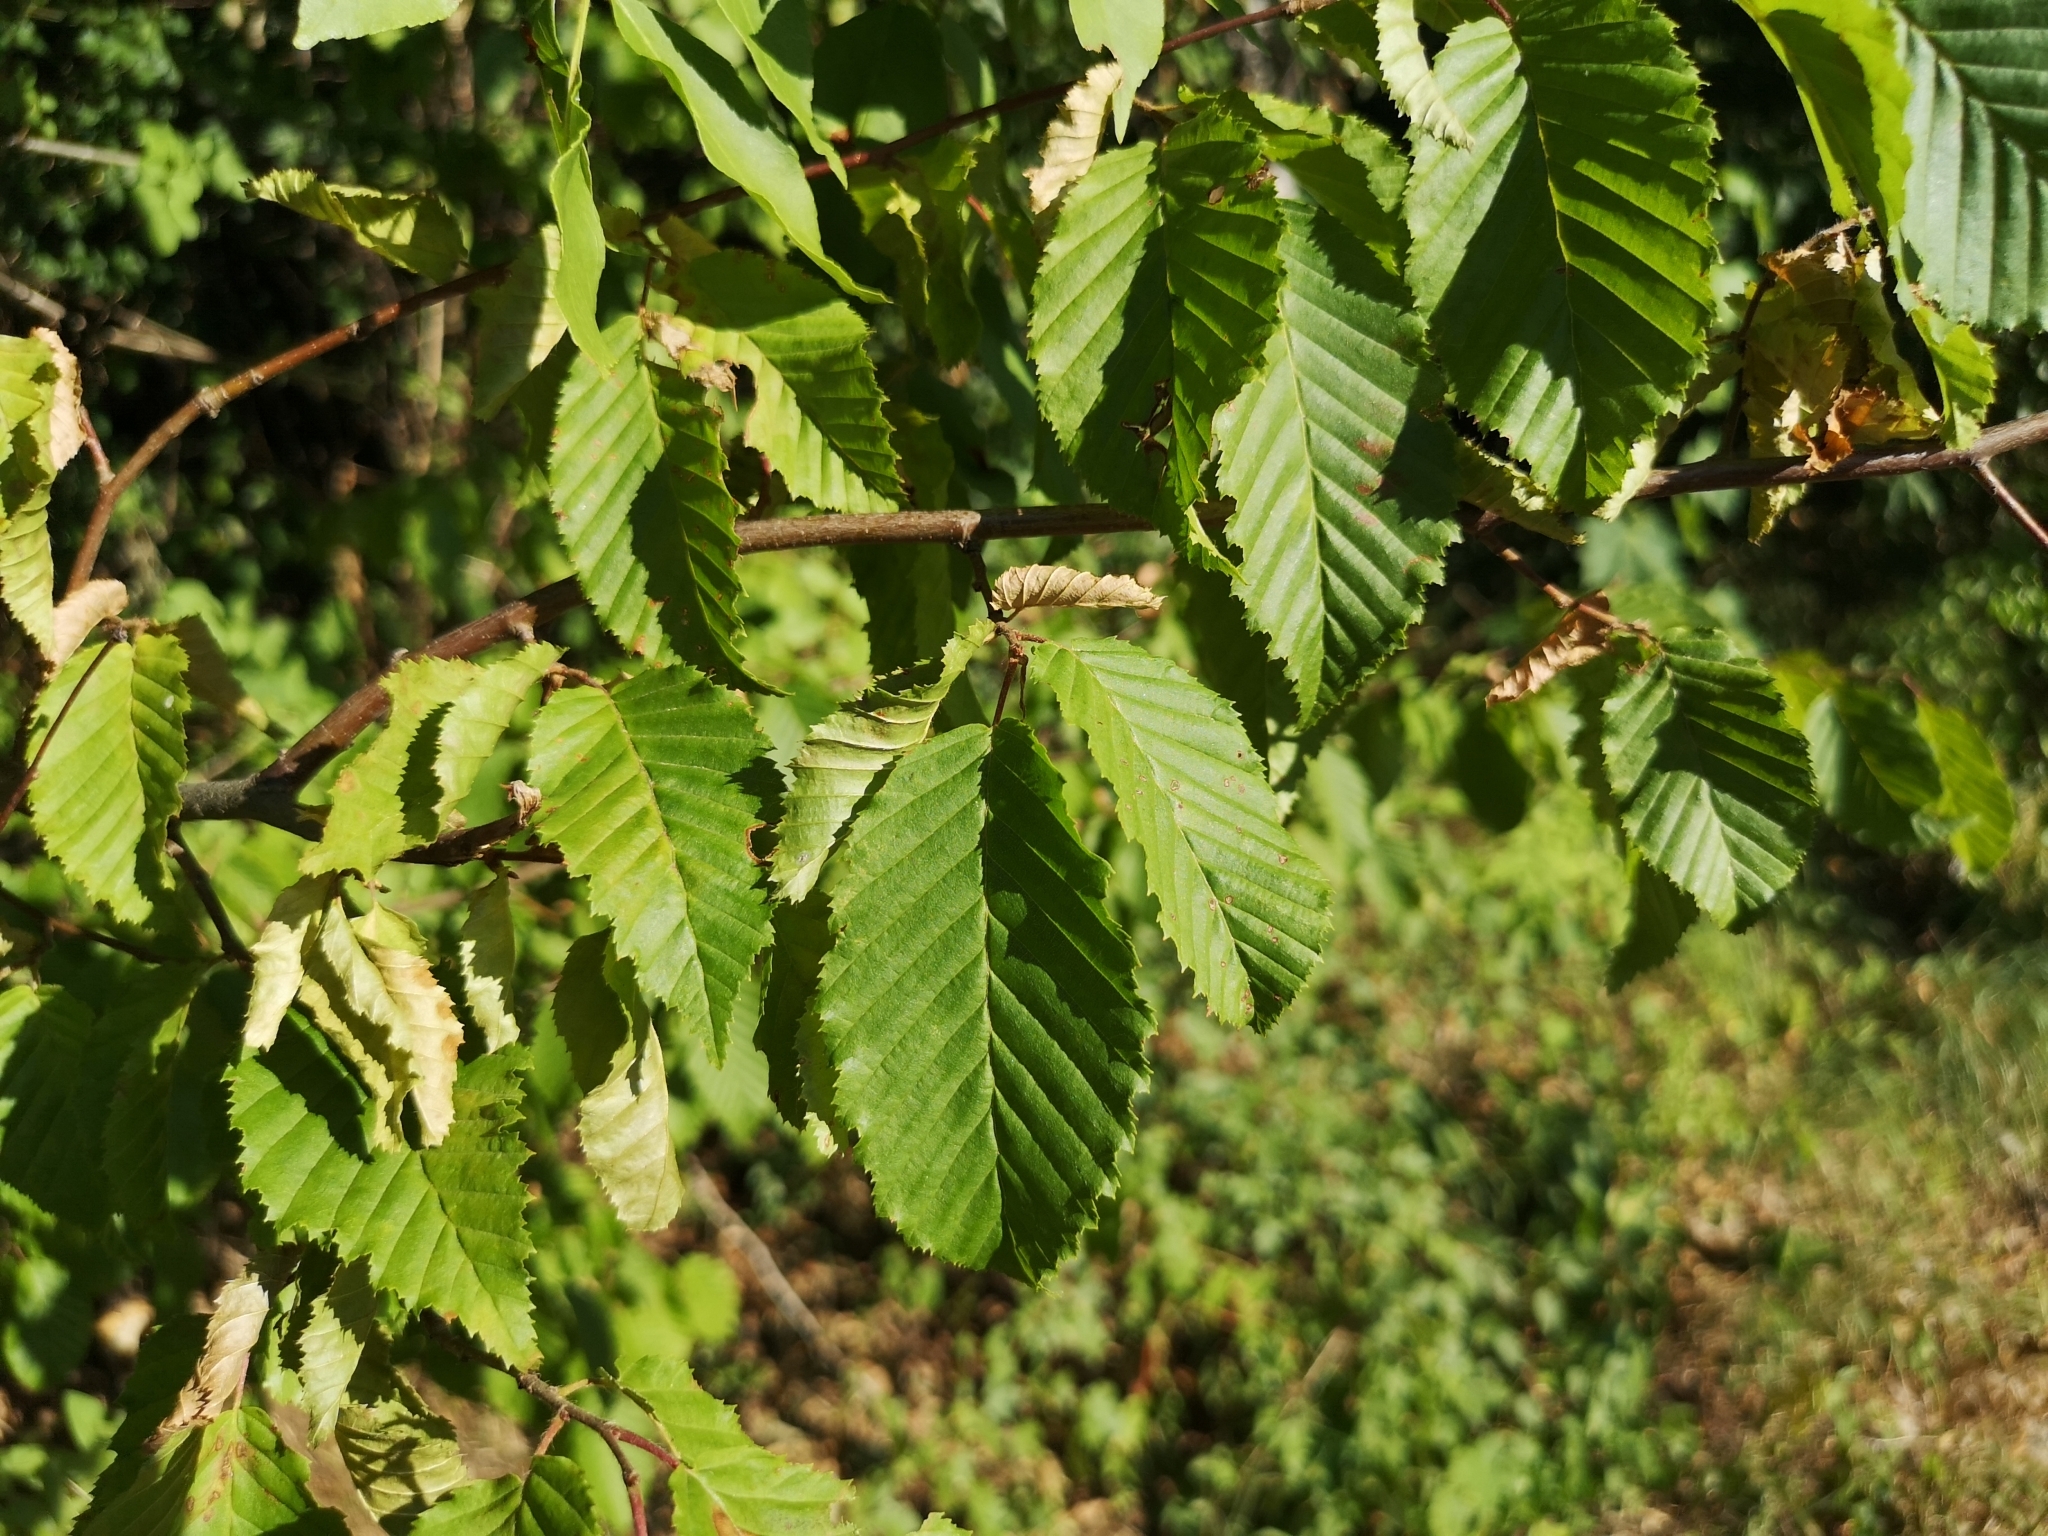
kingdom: Plantae
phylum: Tracheophyta
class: Magnoliopsida
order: Fagales
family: Betulaceae
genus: Carpinus
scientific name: Carpinus betulus
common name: Hornbeam
